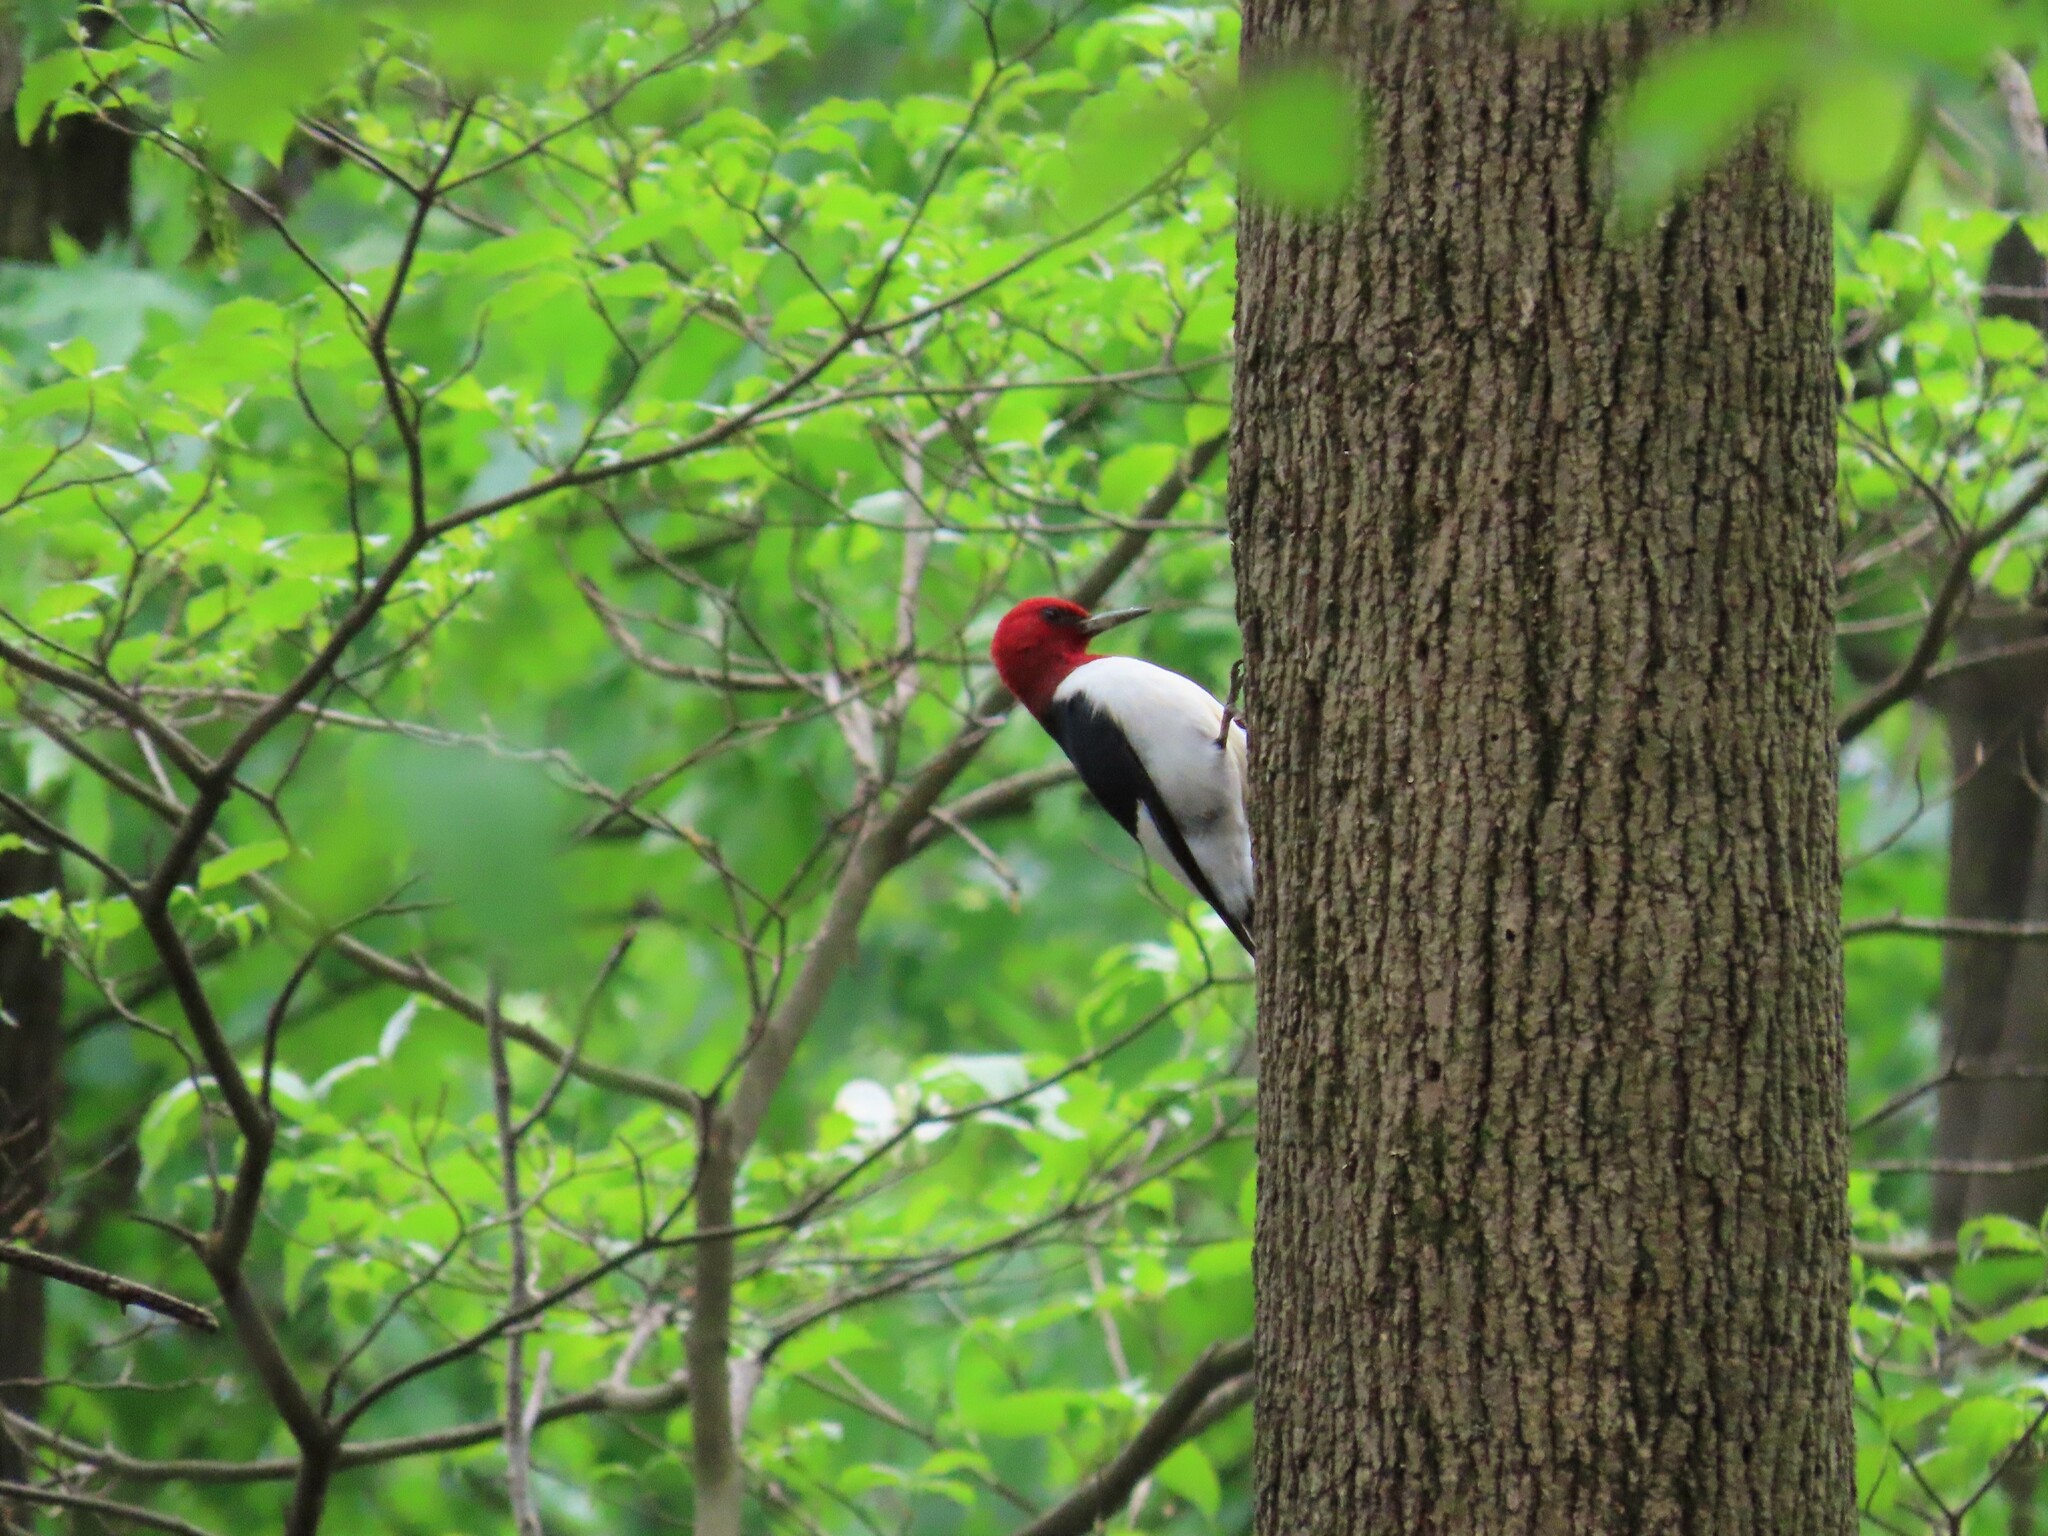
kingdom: Animalia
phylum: Chordata
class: Aves
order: Piciformes
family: Picidae
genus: Melanerpes
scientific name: Melanerpes erythrocephalus
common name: Red-headed woodpecker
